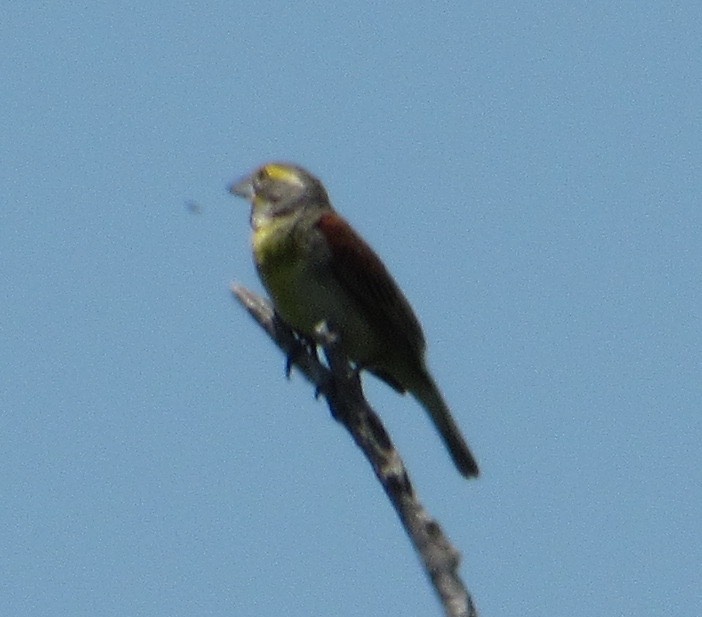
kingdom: Animalia
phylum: Chordata
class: Aves
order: Passeriformes
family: Cardinalidae
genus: Spiza
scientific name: Spiza americana
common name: Dickcissel
